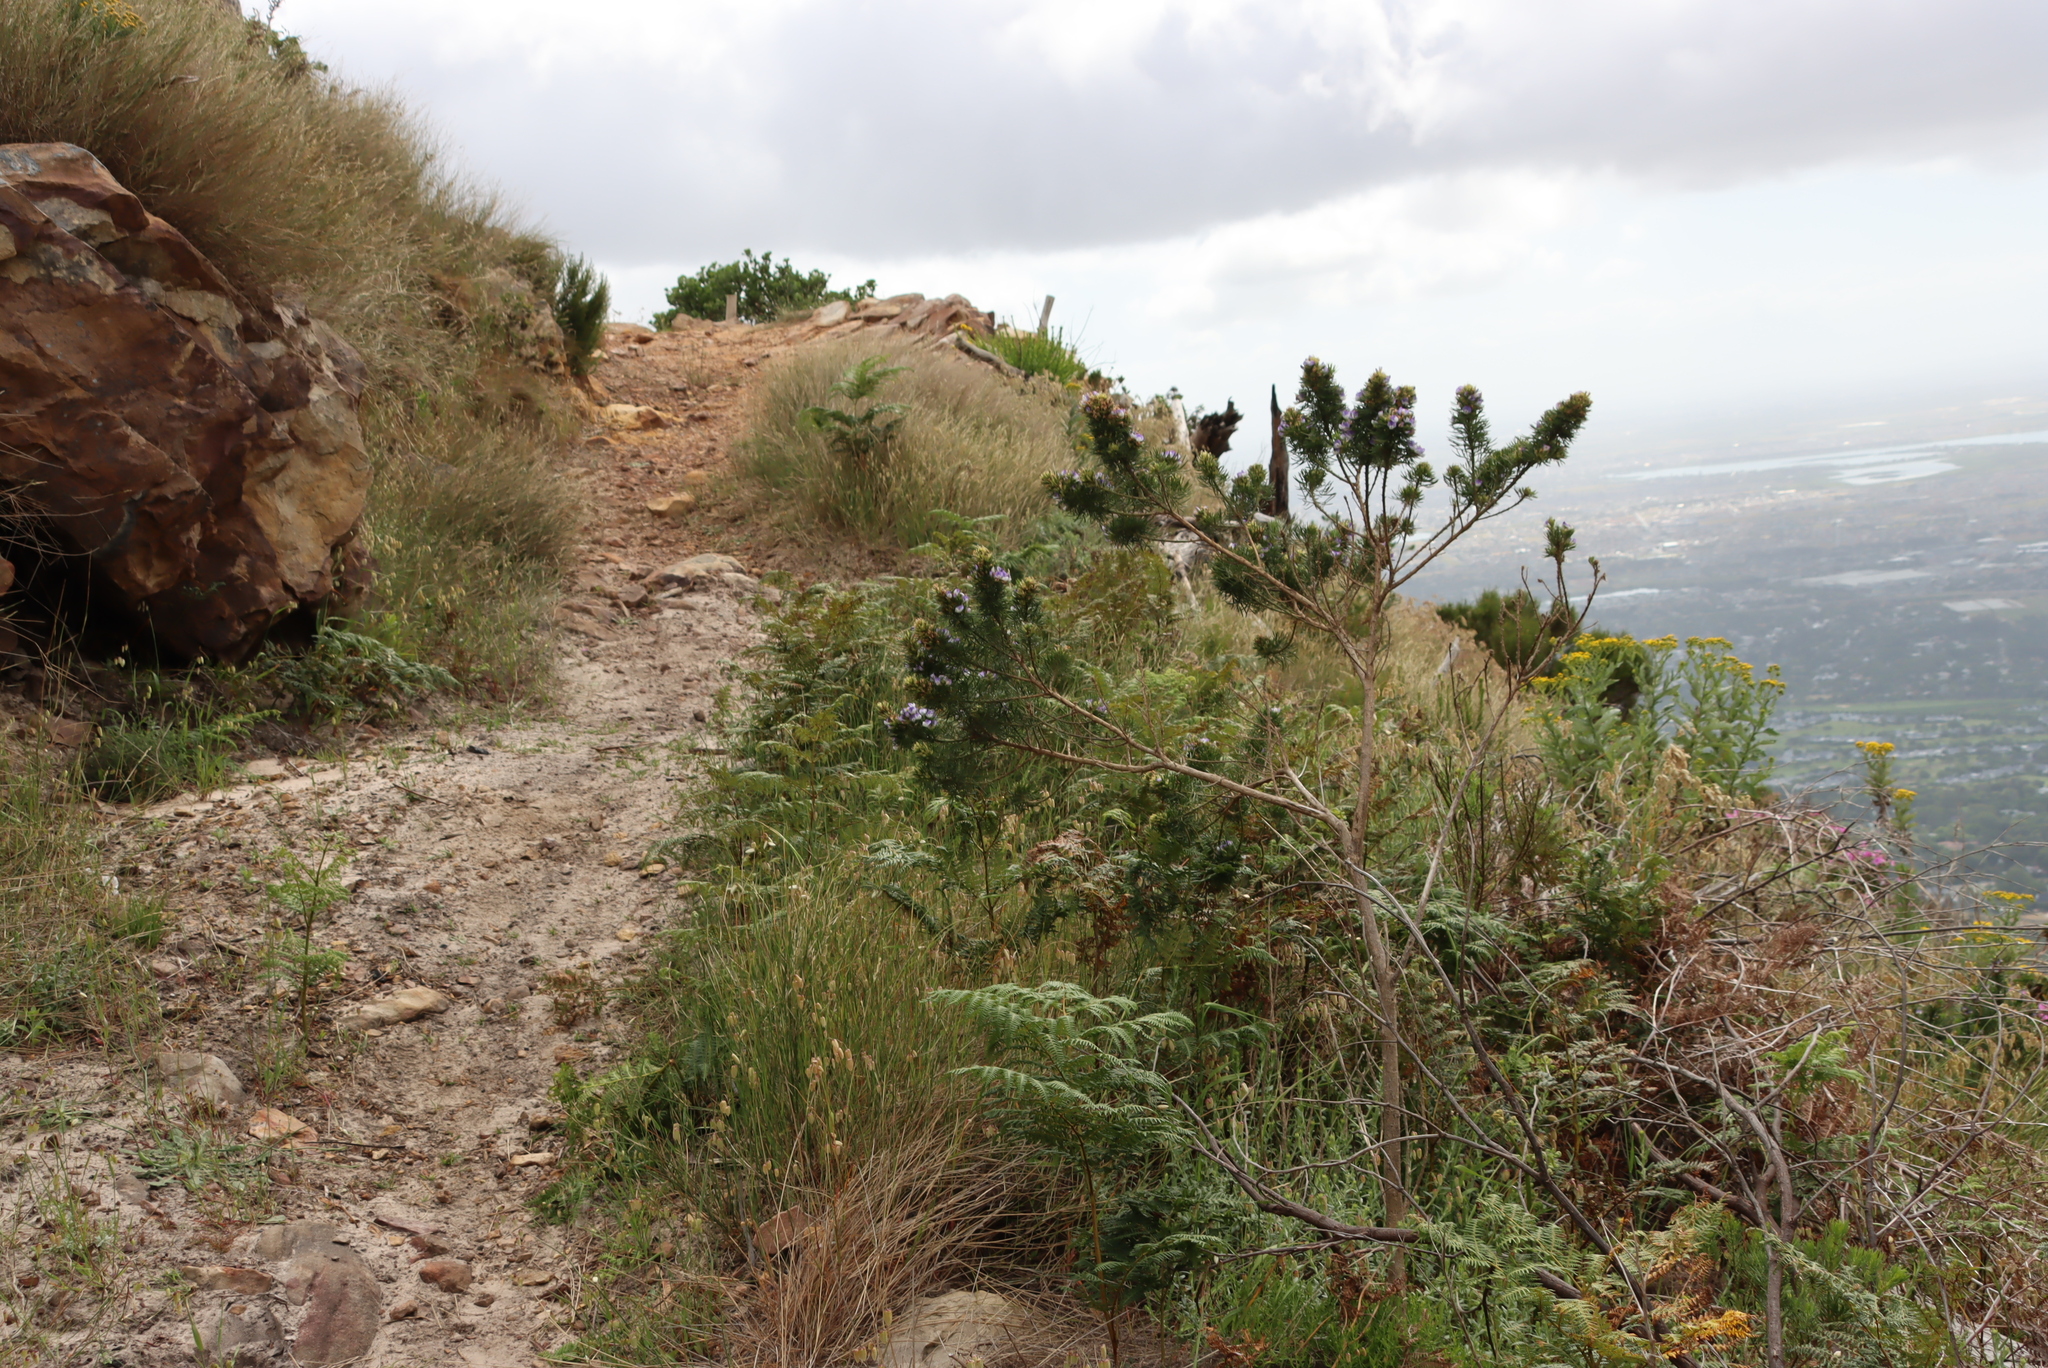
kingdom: Plantae
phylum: Tracheophyta
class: Magnoliopsida
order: Fabales
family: Fabaceae
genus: Psoralea
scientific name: Psoralea pinnata
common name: African scurfpea
